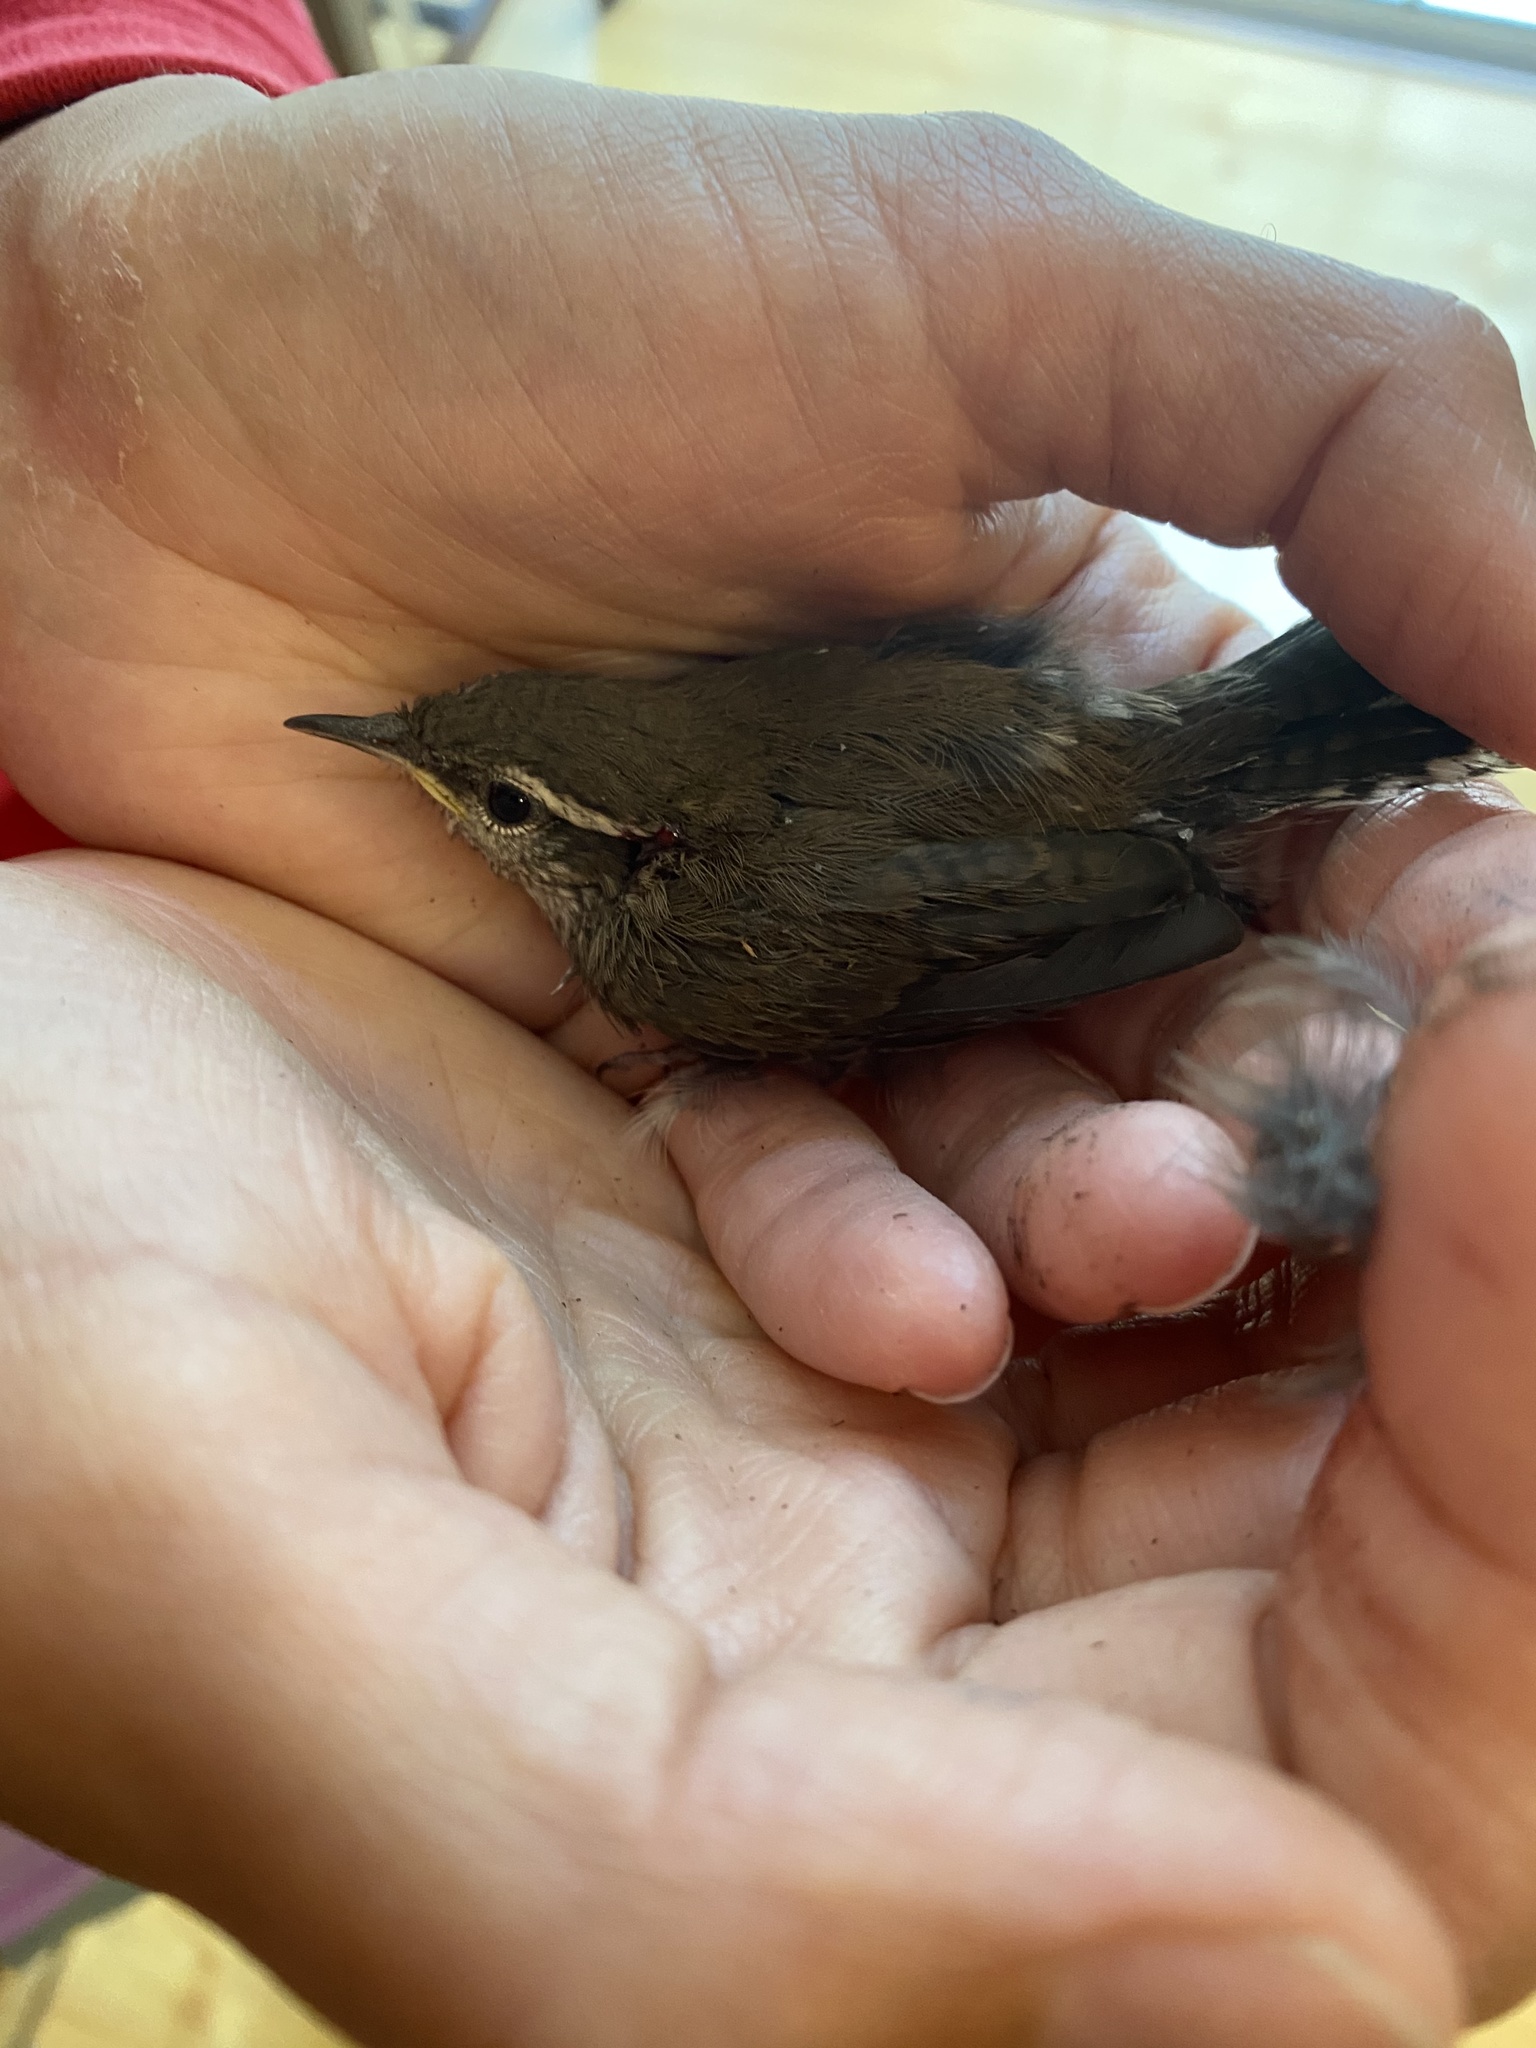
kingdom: Animalia
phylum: Chordata
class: Aves
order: Passeriformes
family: Troglodytidae
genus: Thryomanes
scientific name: Thryomanes bewickii
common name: Bewick's wren
